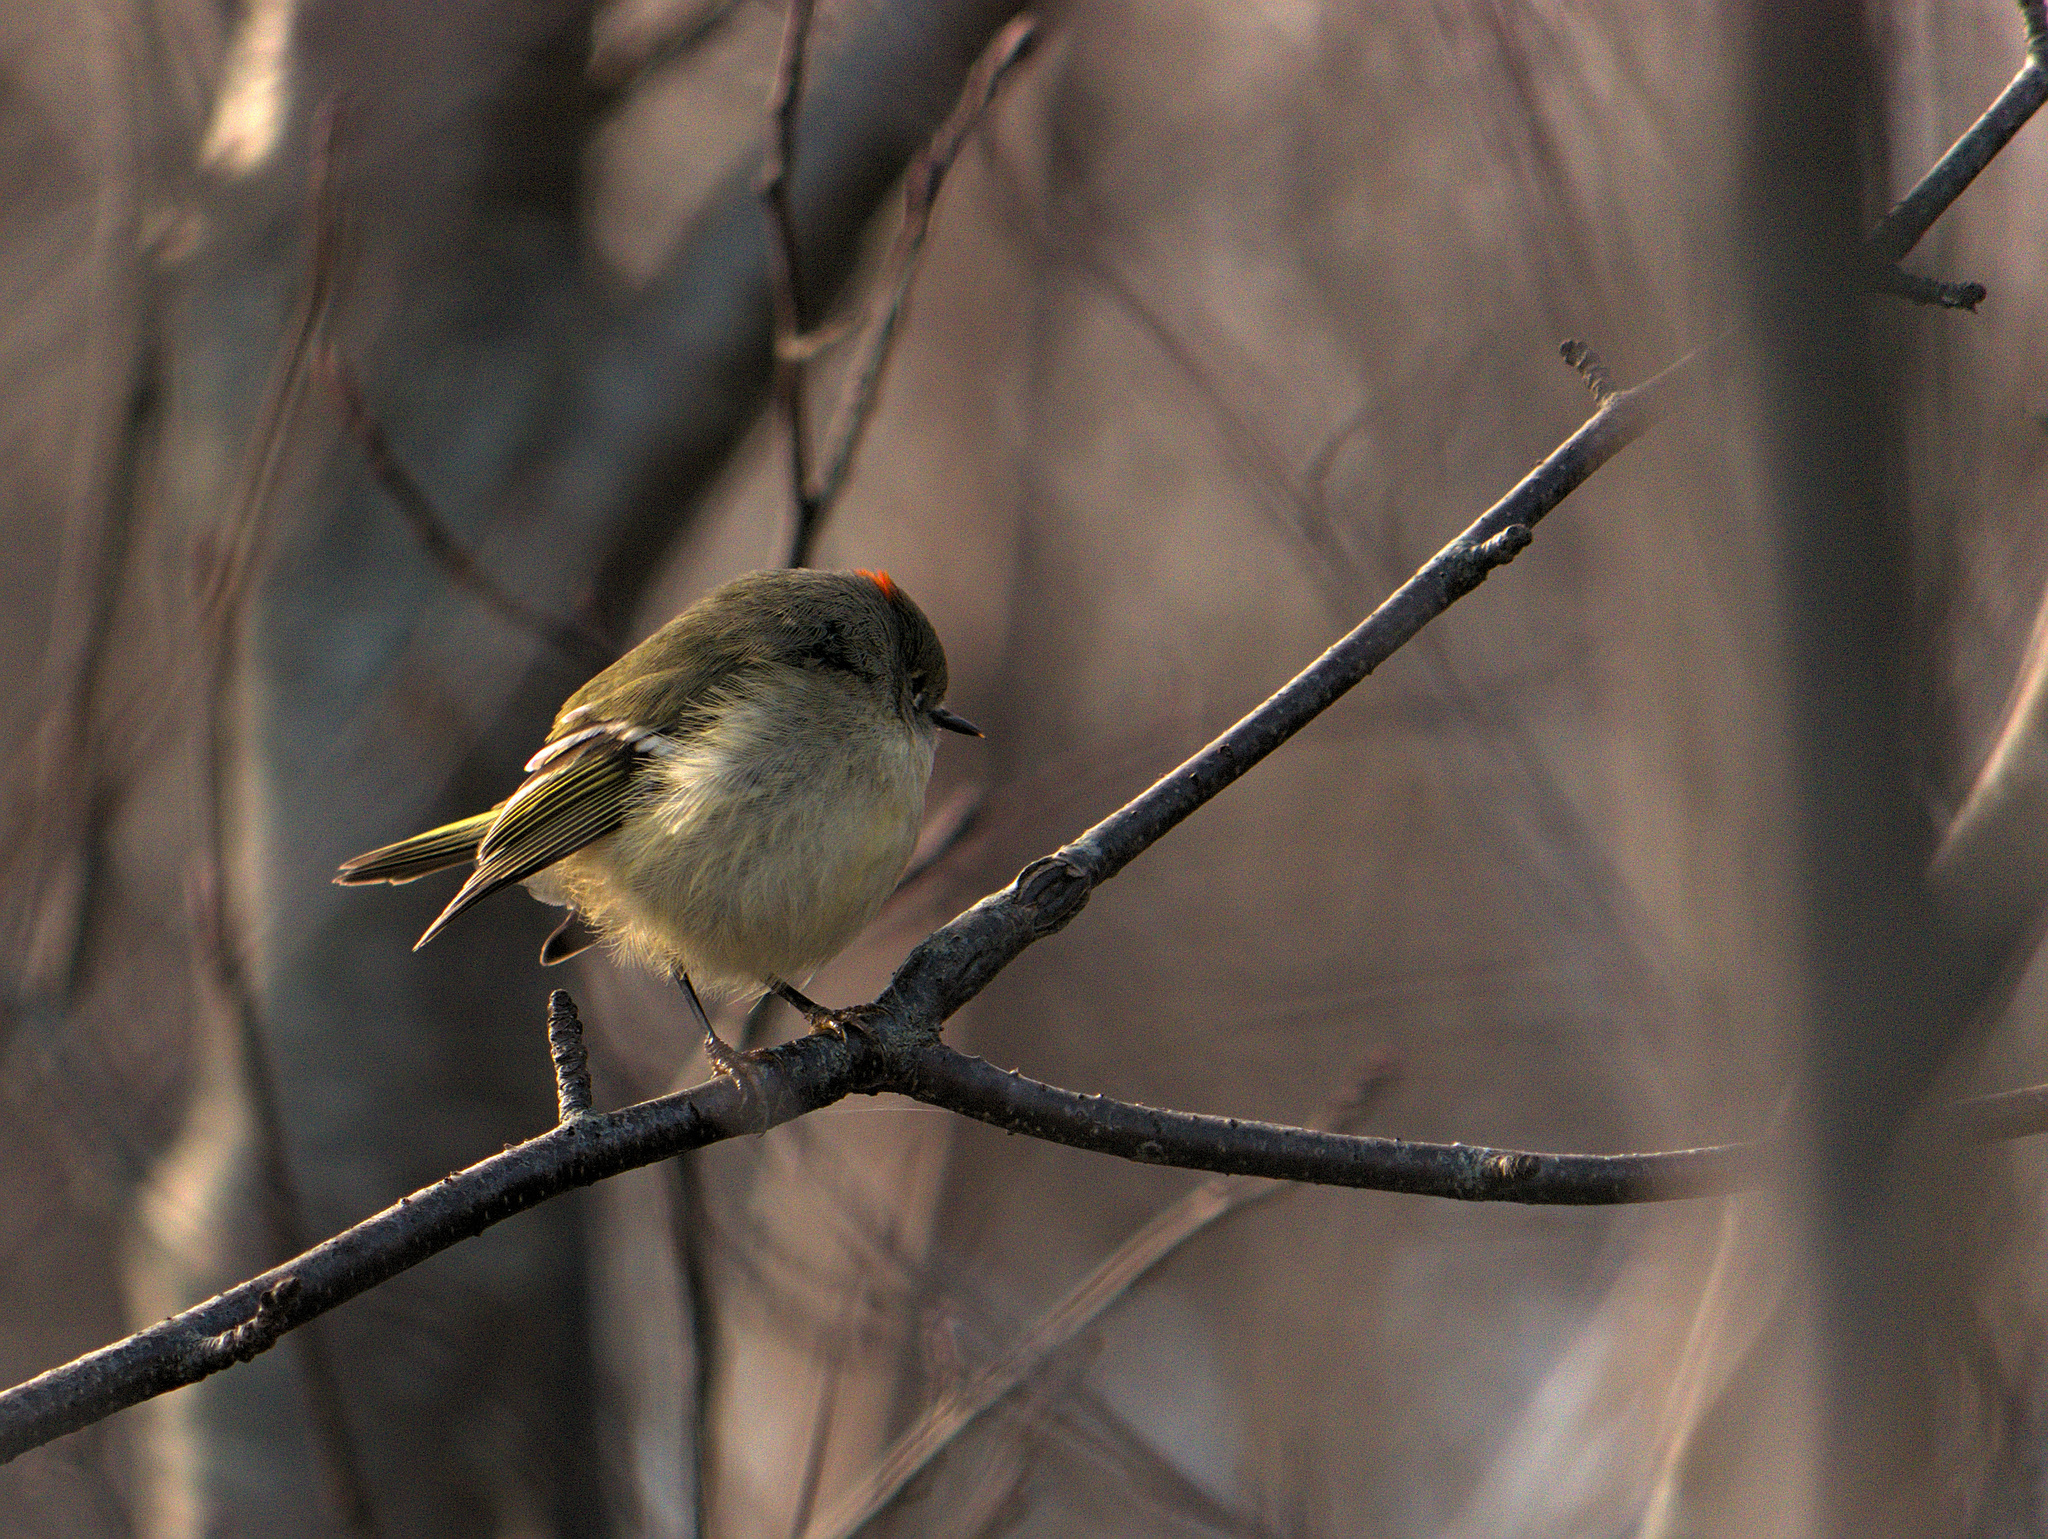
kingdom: Animalia
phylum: Chordata
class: Aves
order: Passeriformes
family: Regulidae
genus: Regulus
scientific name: Regulus calendula
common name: Ruby-crowned kinglet
